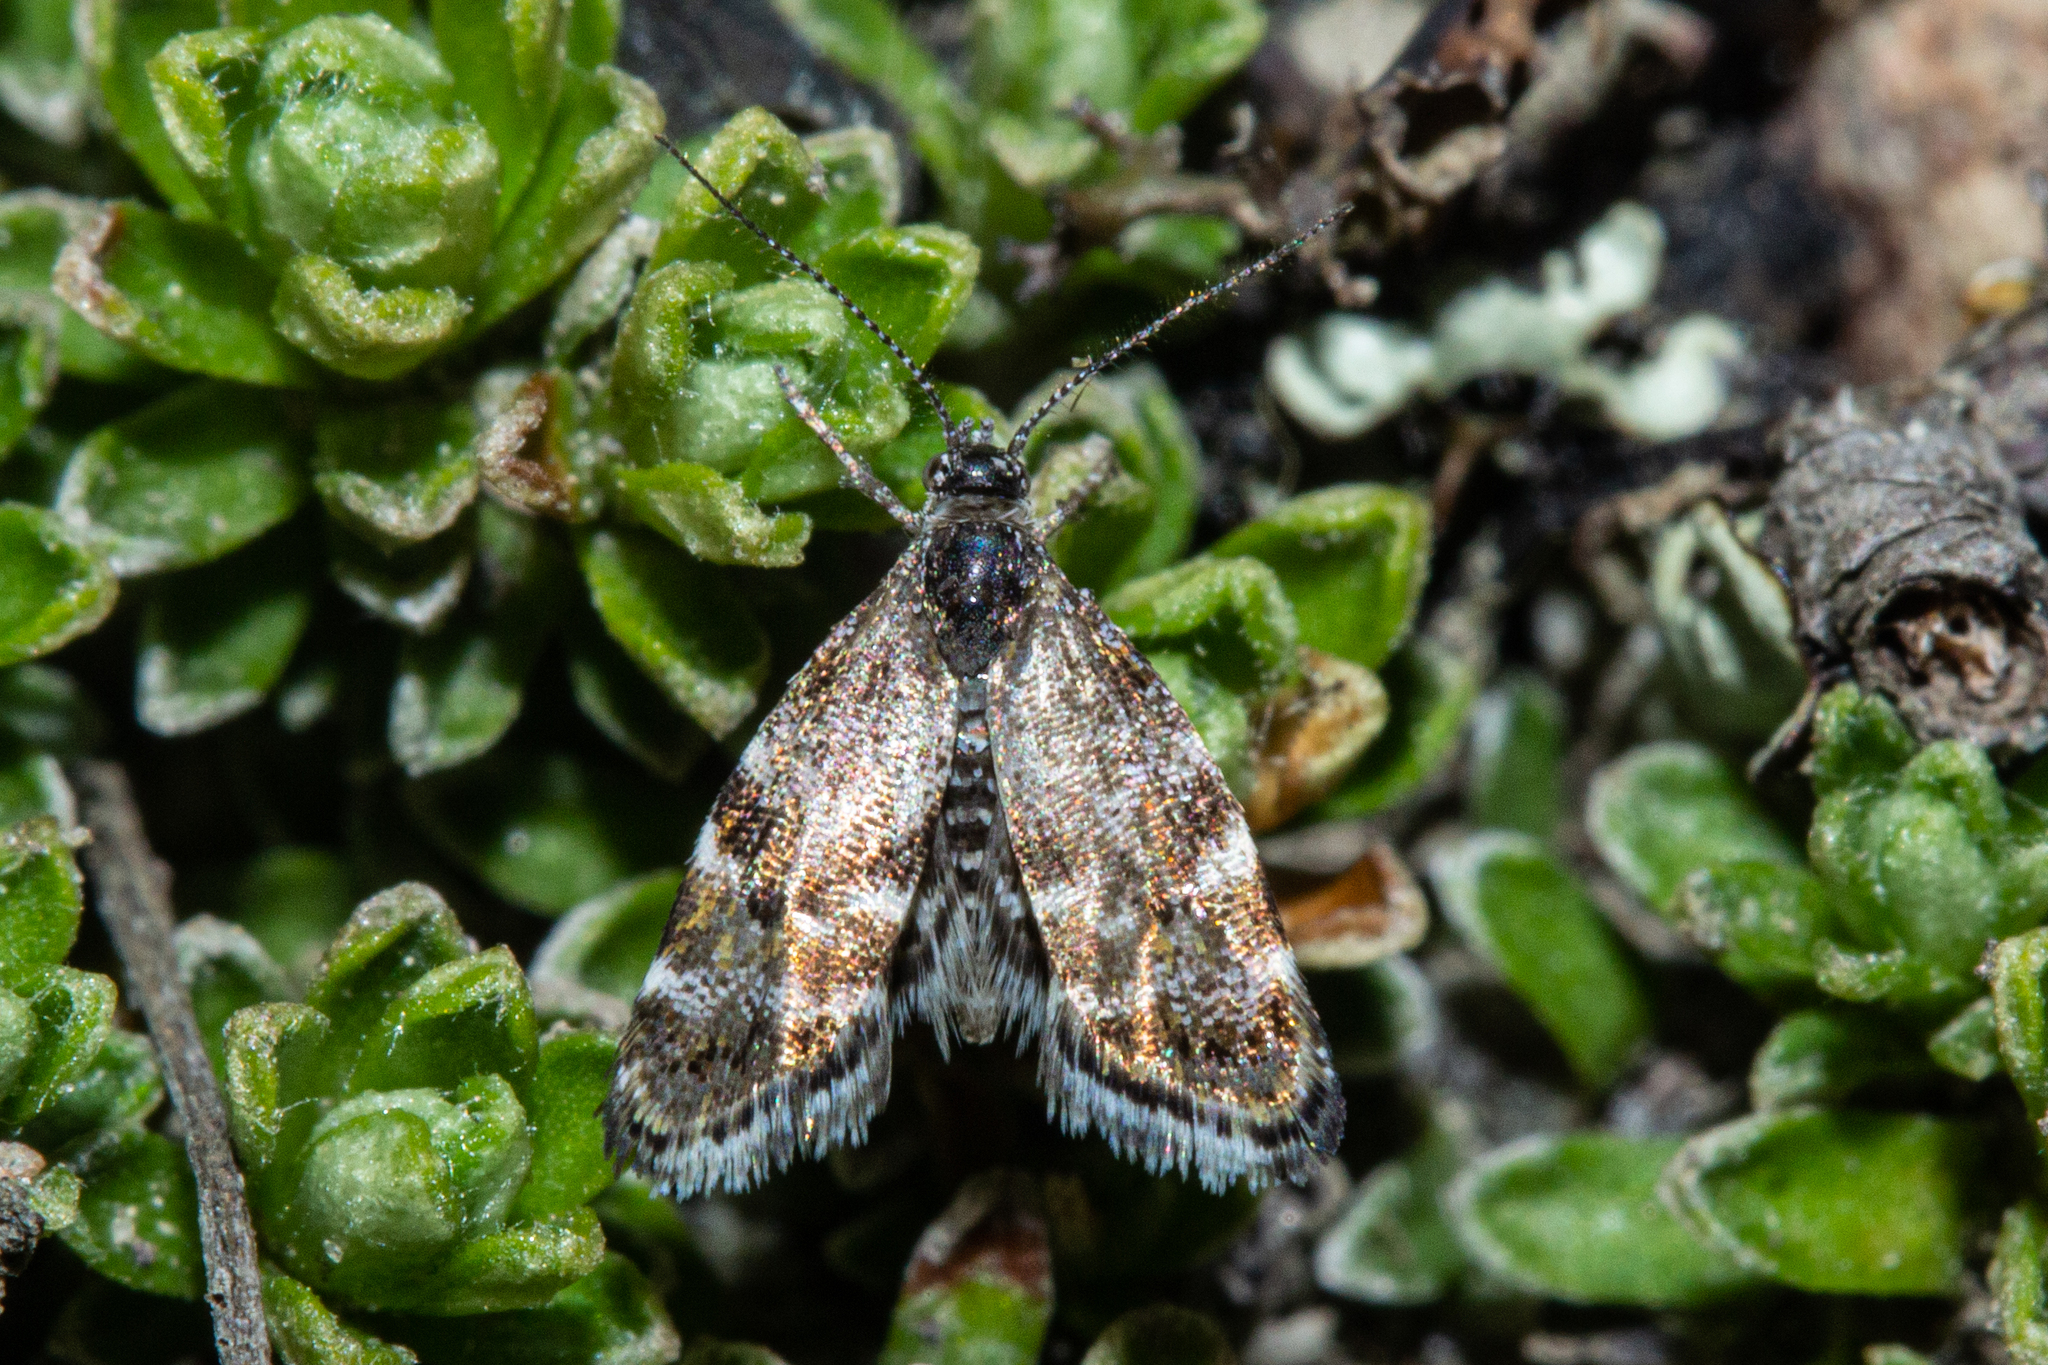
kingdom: Animalia
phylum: Arthropoda
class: Insecta
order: Lepidoptera
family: Choreutidae
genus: Asterivora
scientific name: Asterivora marmarea
